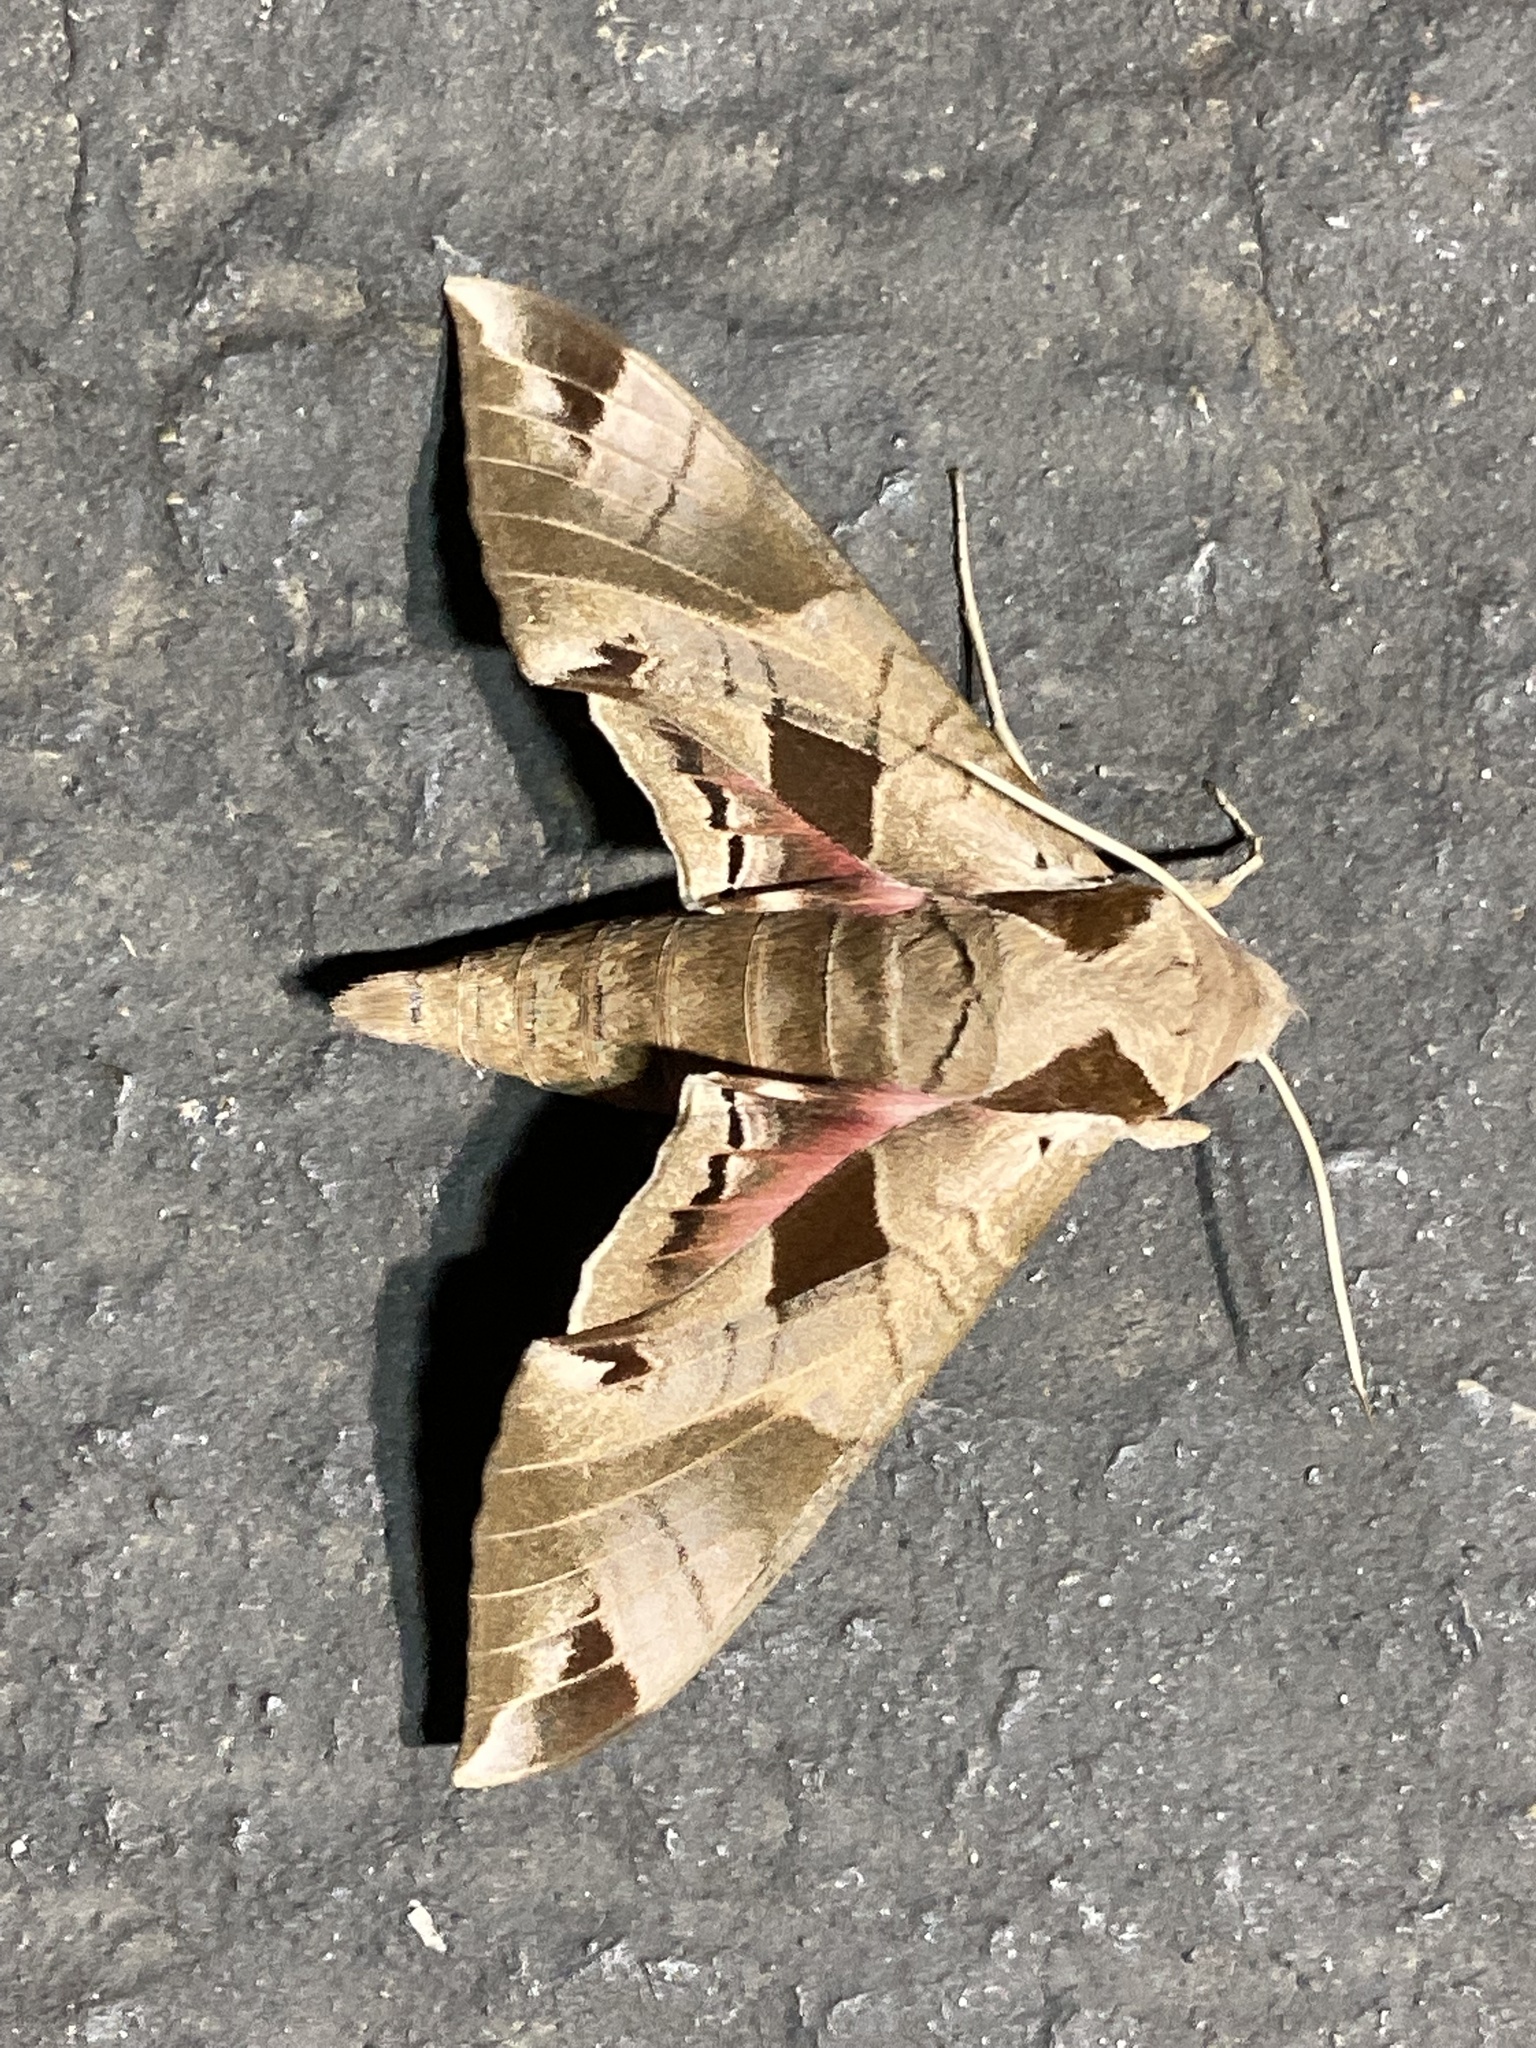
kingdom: Animalia
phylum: Arthropoda
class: Insecta
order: Lepidoptera
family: Sphingidae
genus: Eumorpha
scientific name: Eumorpha achemon
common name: Achemon sphinx
